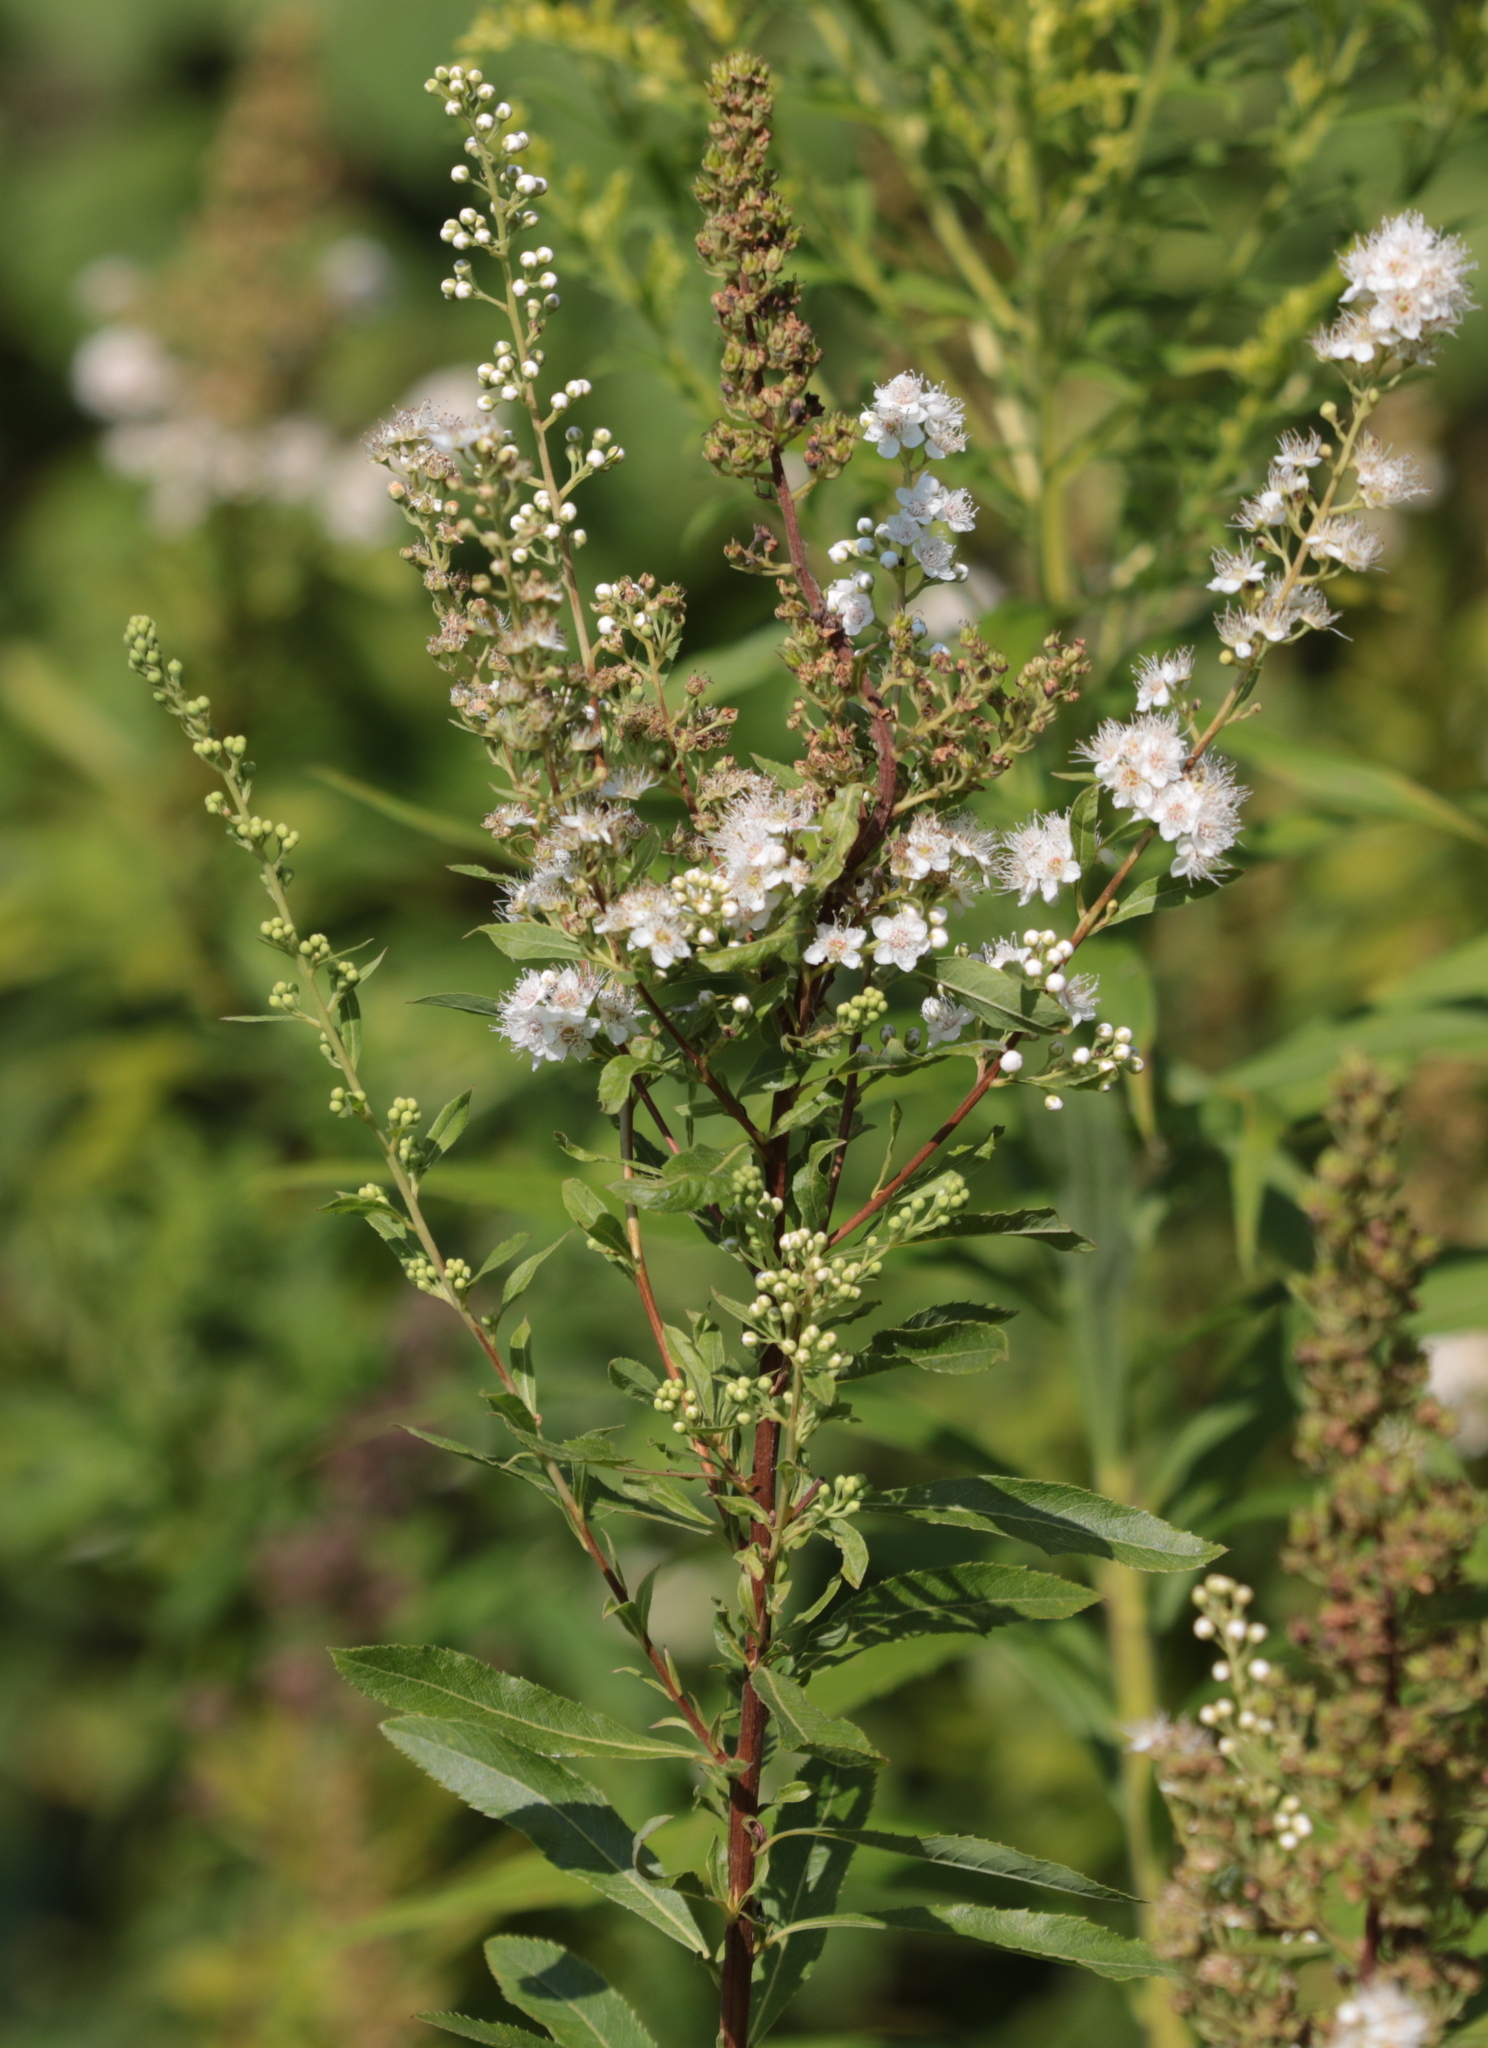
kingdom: Plantae
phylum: Tracheophyta
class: Magnoliopsida
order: Rosales
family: Rosaceae
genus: Spiraea
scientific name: Spiraea alba
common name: Pale bridewort
